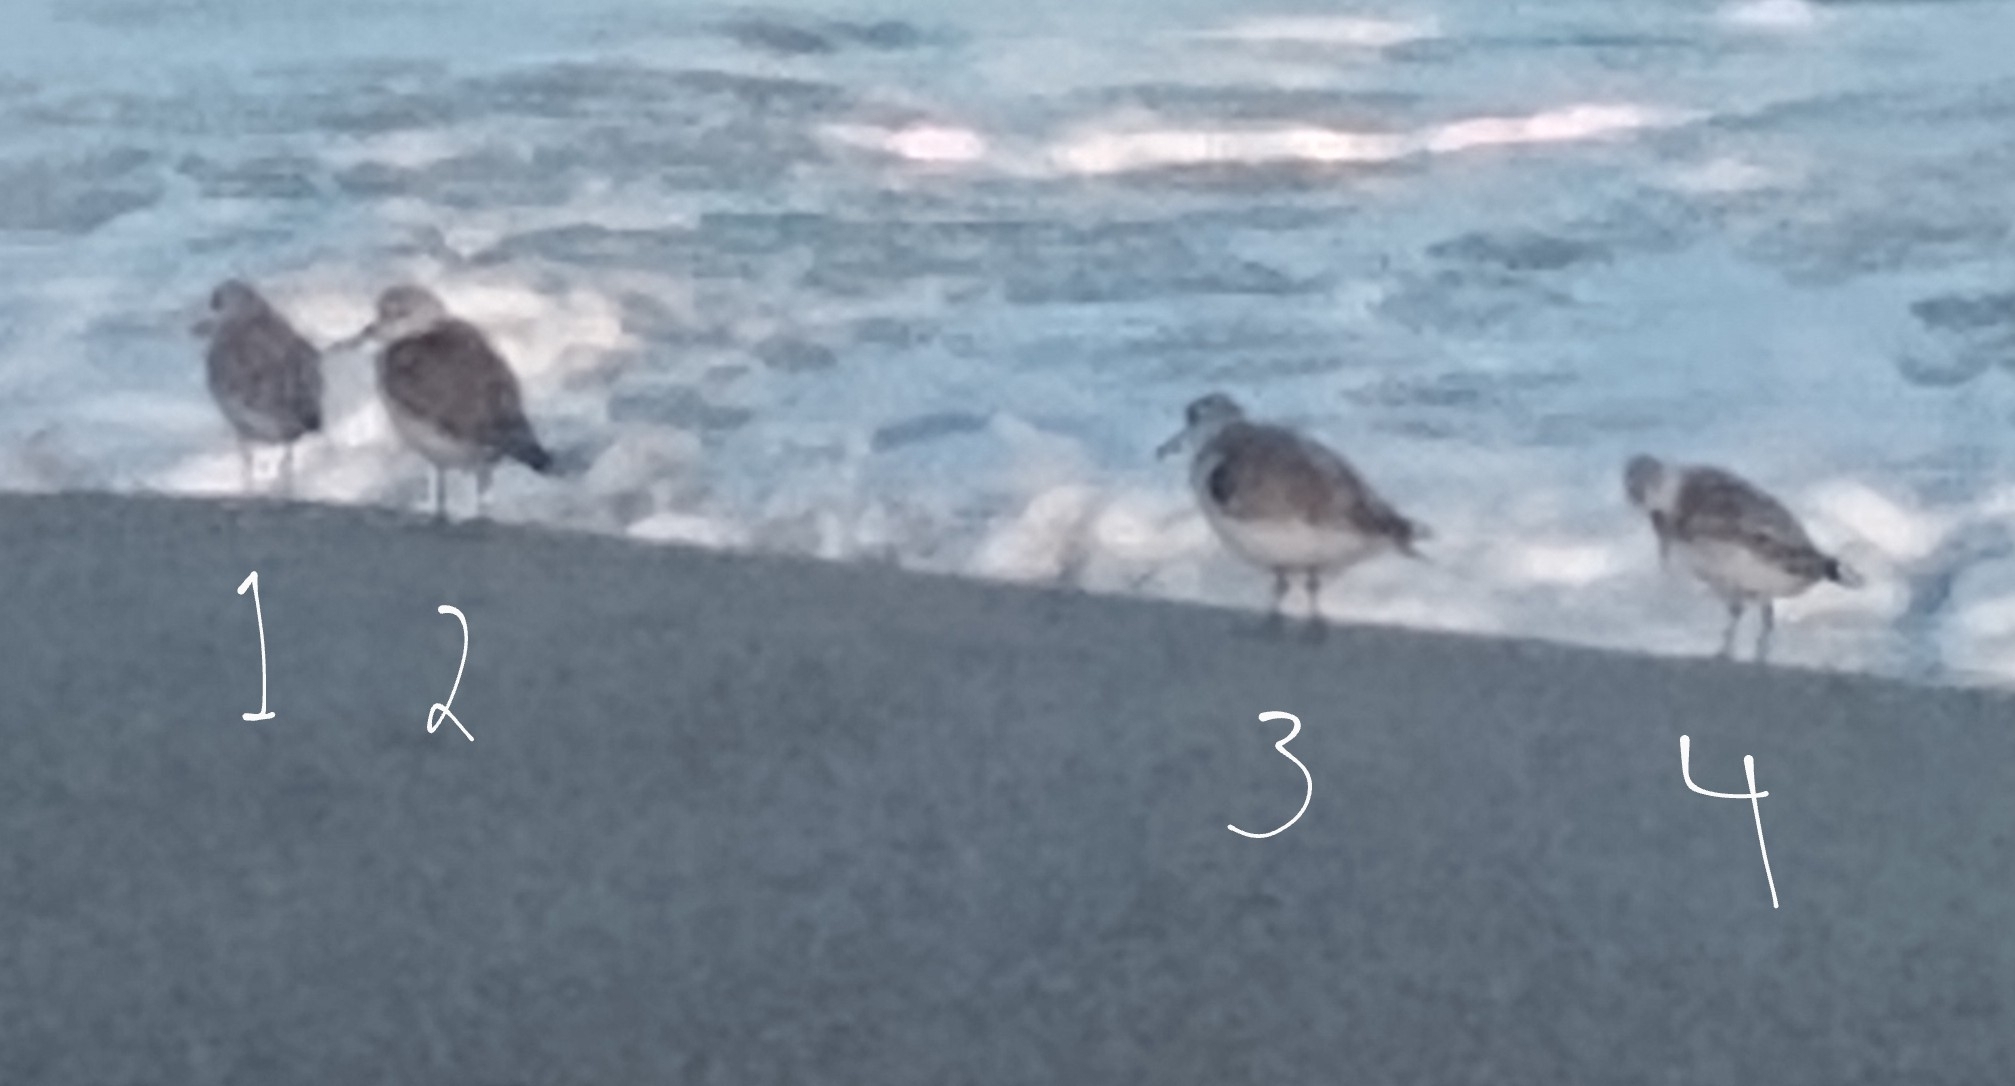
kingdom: Animalia
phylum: Chordata
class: Aves
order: Charadriiformes
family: Scolopacidae
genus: Calidris
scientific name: Calidris alba
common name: Sanderling
